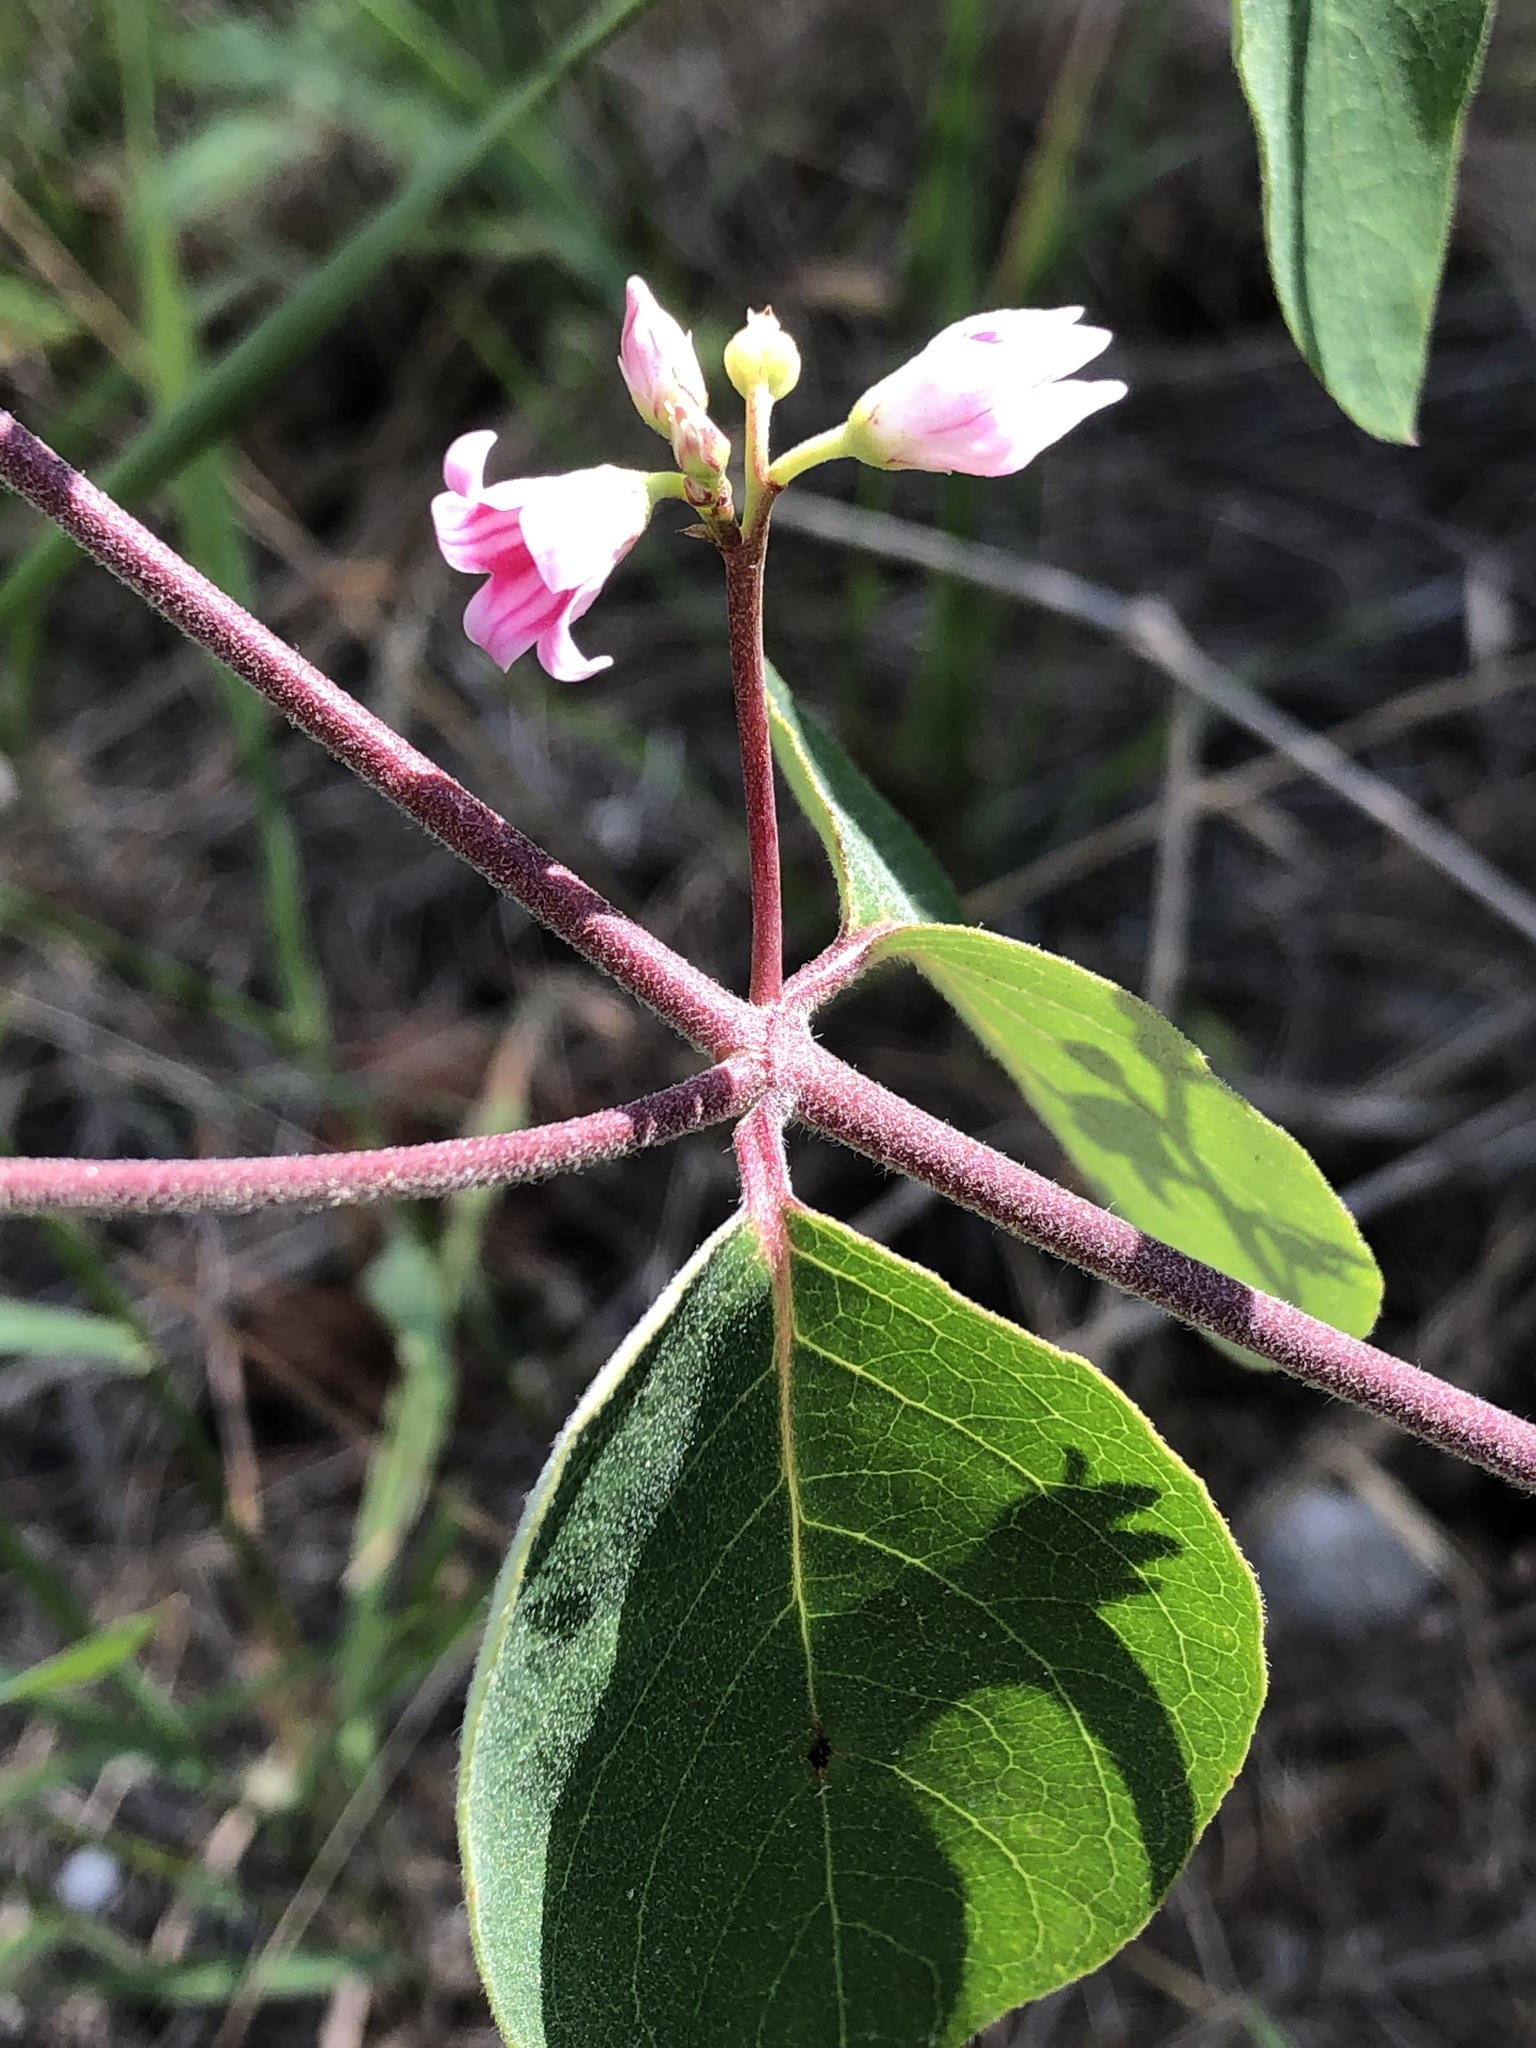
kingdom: Plantae
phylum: Tracheophyta
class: Magnoliopsida
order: Gentianales
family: Apocynaceae
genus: Apocynum
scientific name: Apocynum androsaemifolium
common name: Spreading dogbane
